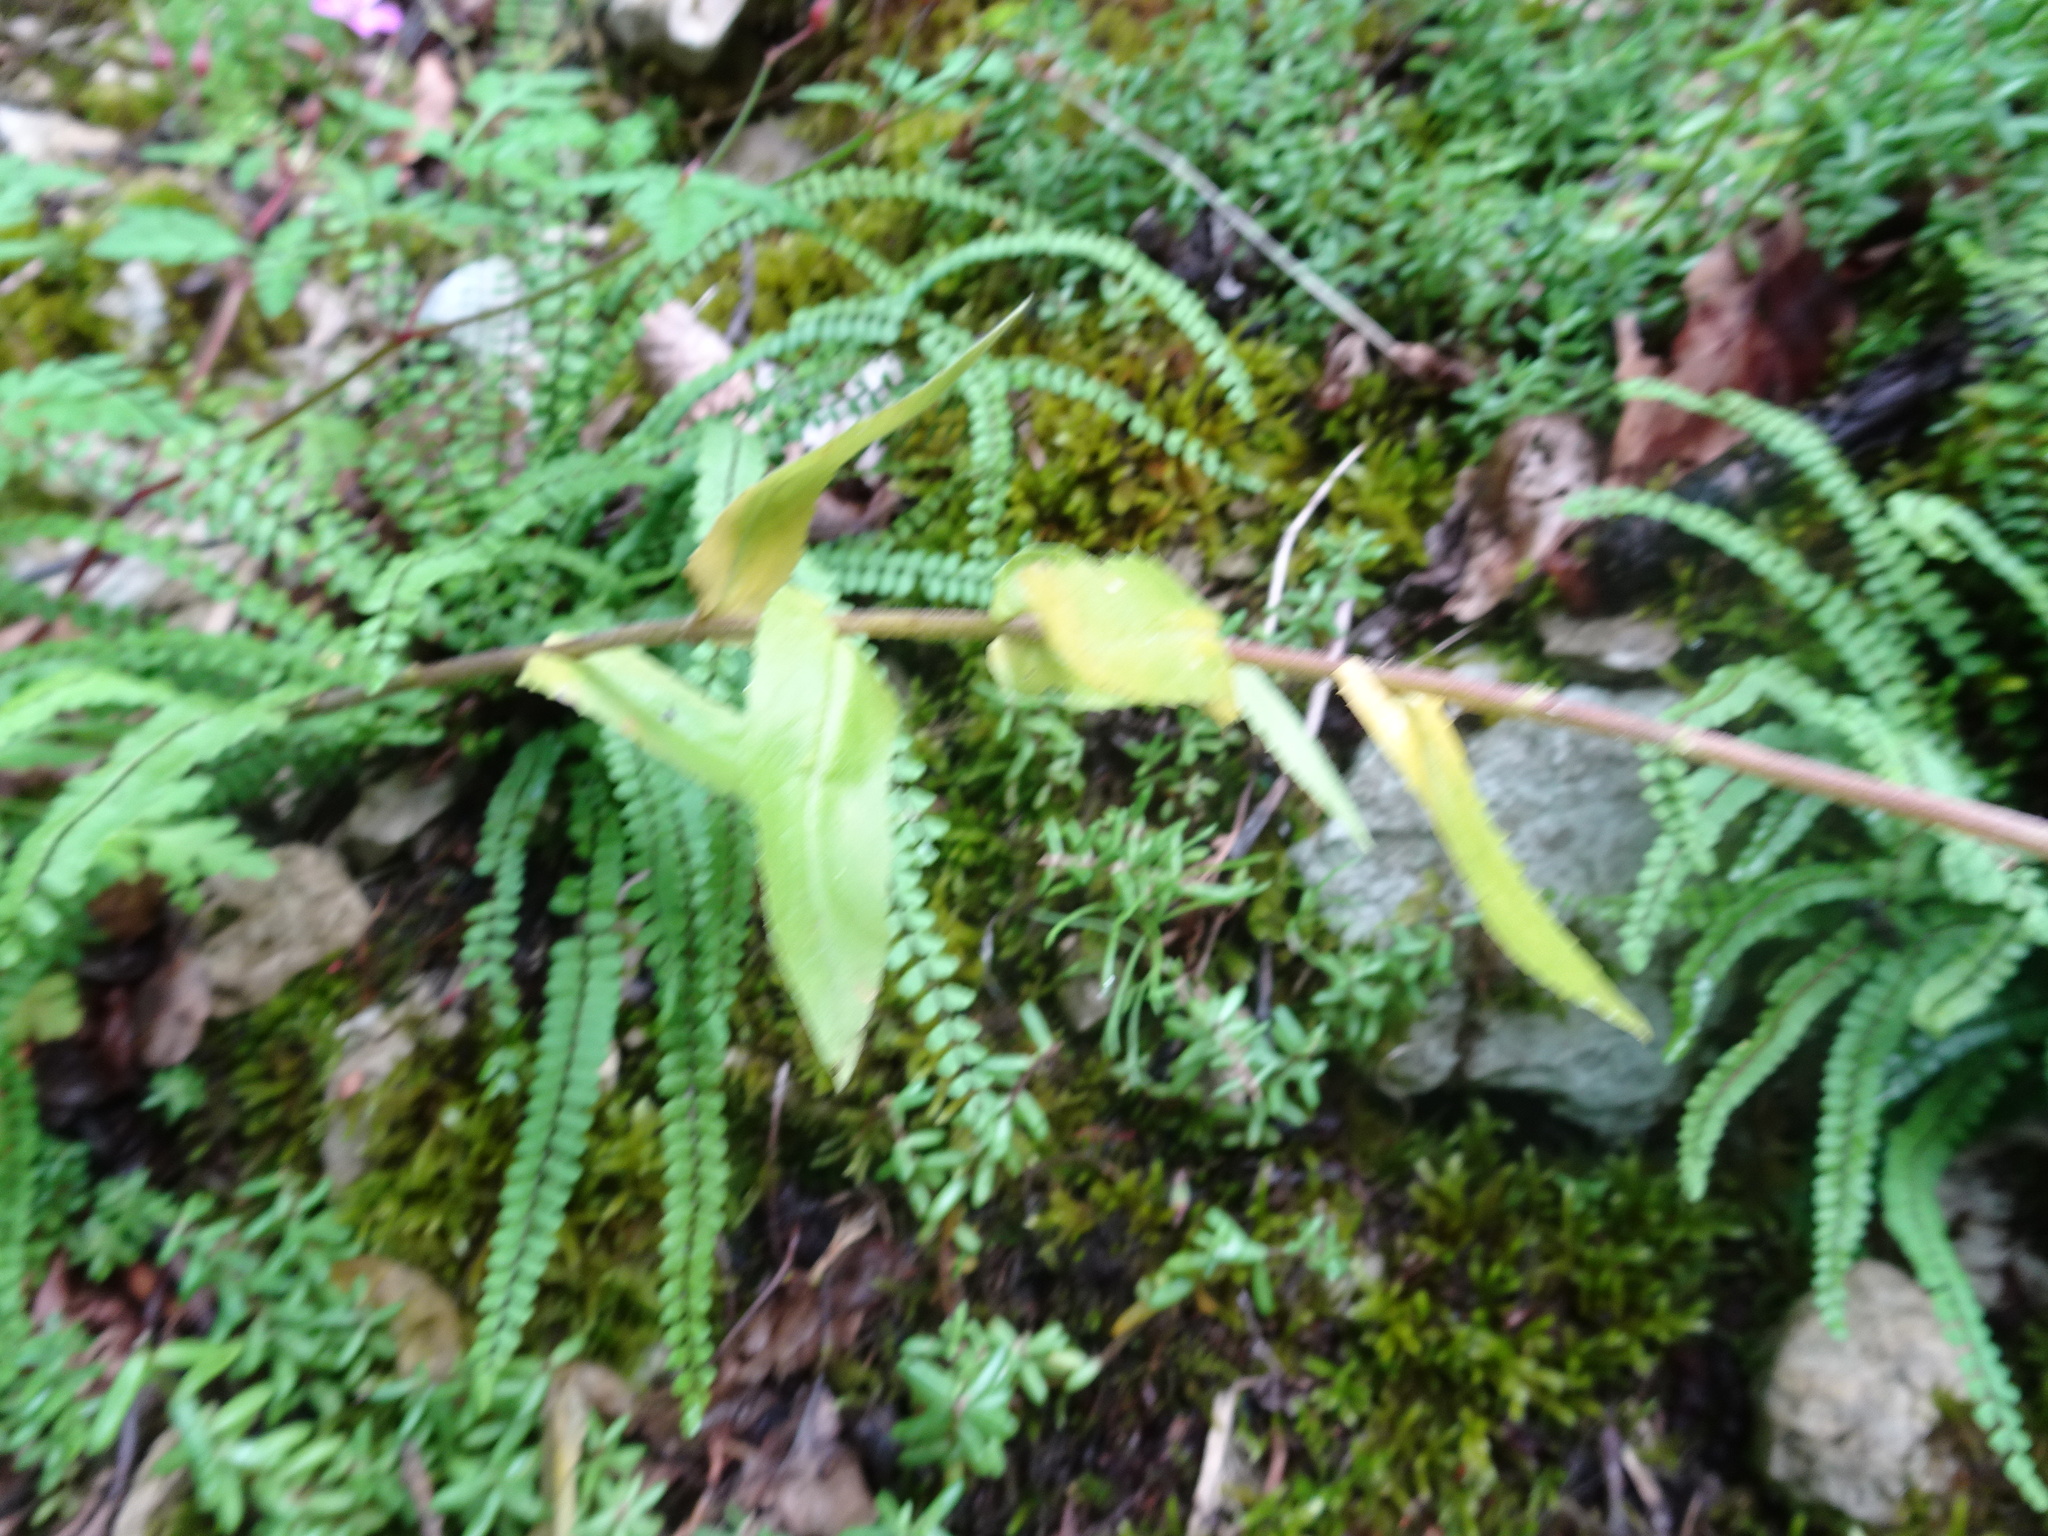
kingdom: Plantae
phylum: Tracheophyta
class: Magnoliopsida
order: Brassicales
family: Brassicaceae
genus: Pseudoturritis
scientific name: Pseudoturritis turrita
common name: Tower cress
